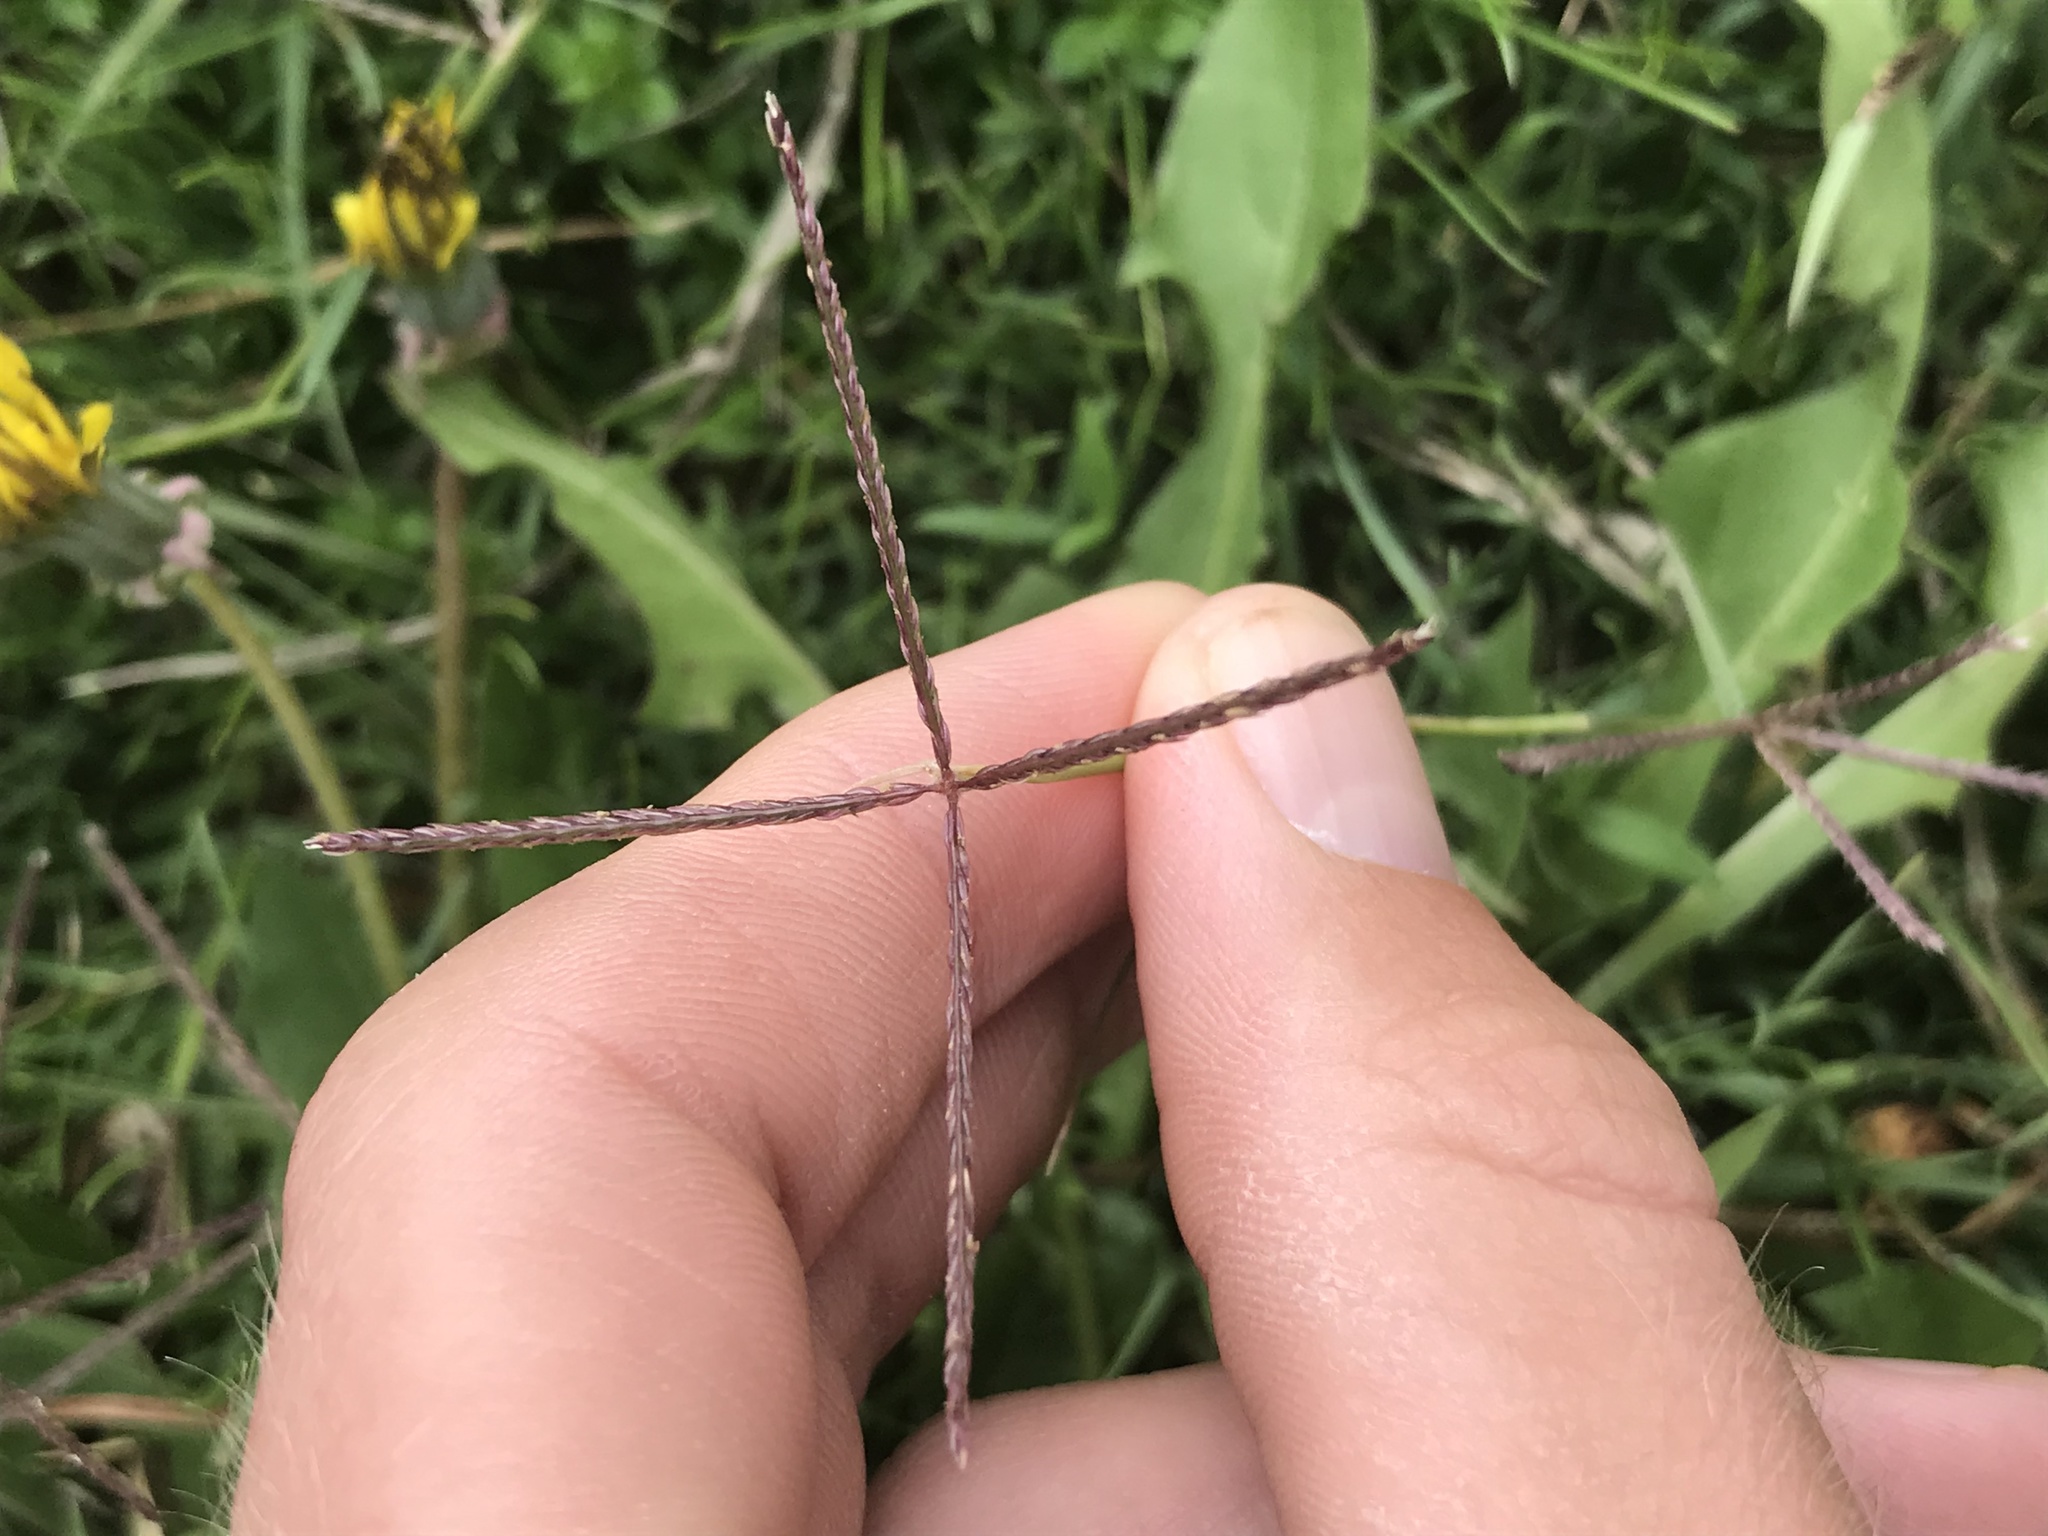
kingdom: Plantae
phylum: Tracheophyta
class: Liliopsida
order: Poales
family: Poaceae
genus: Cynodon
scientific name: Cynodon dactylon
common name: Bermuda grass
